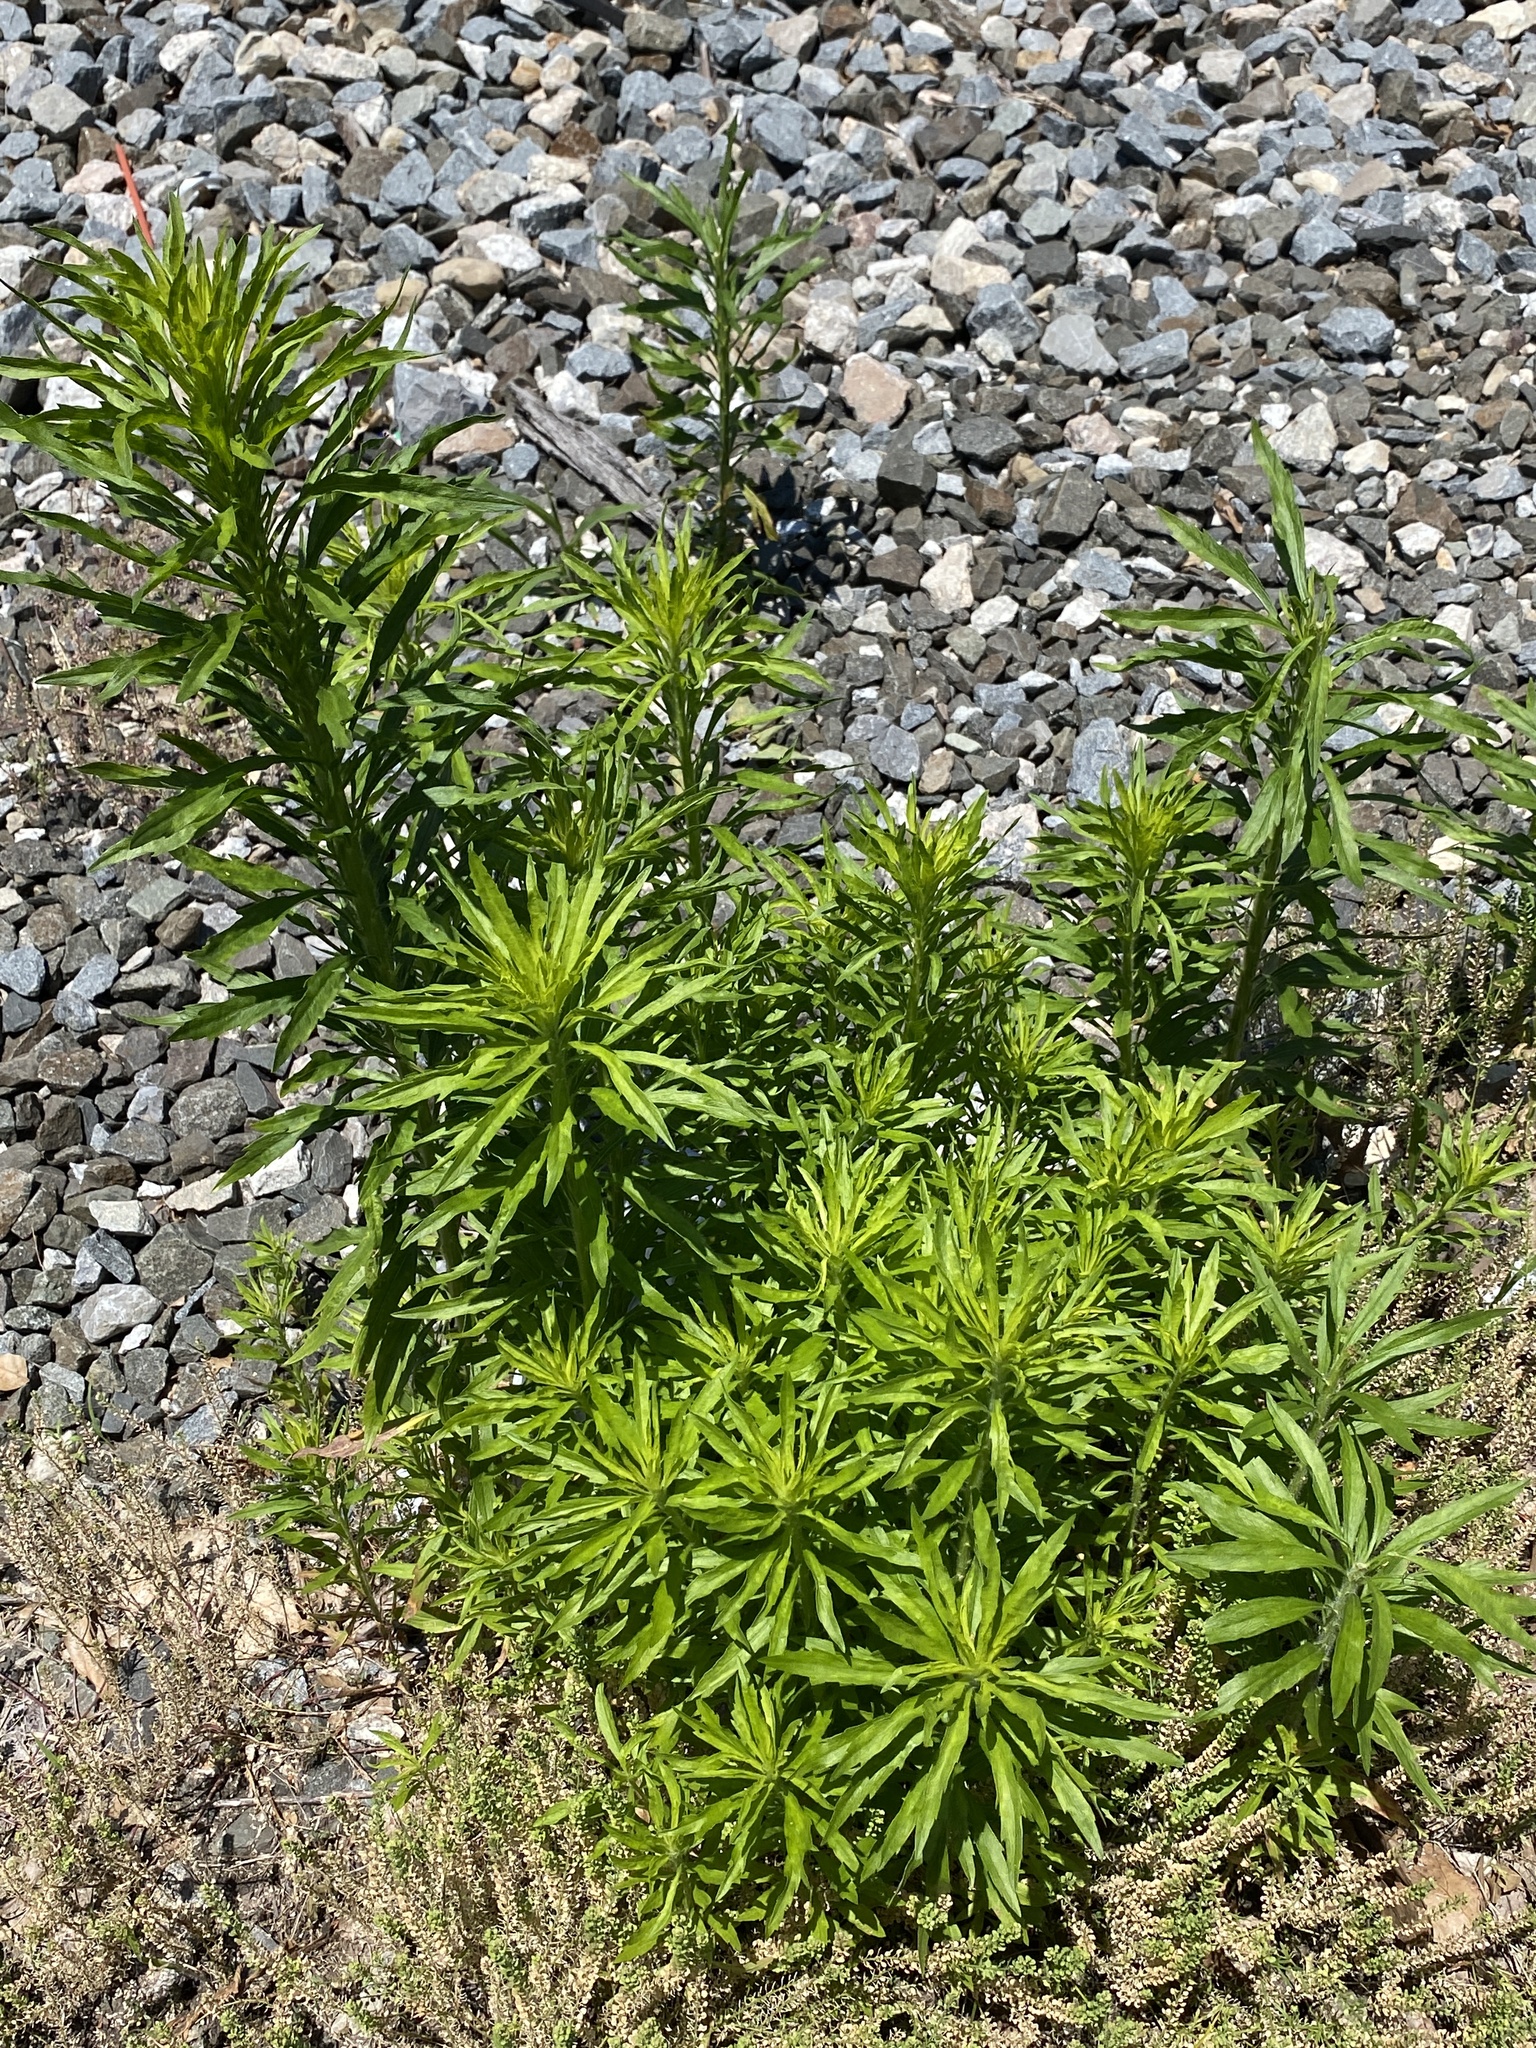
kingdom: Plantae
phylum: Tracheophyta
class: Magnoliopsida
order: Asterales
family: Asteraceae
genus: Erigeron
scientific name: Erigeron canadensis
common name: Canadian fleabane
